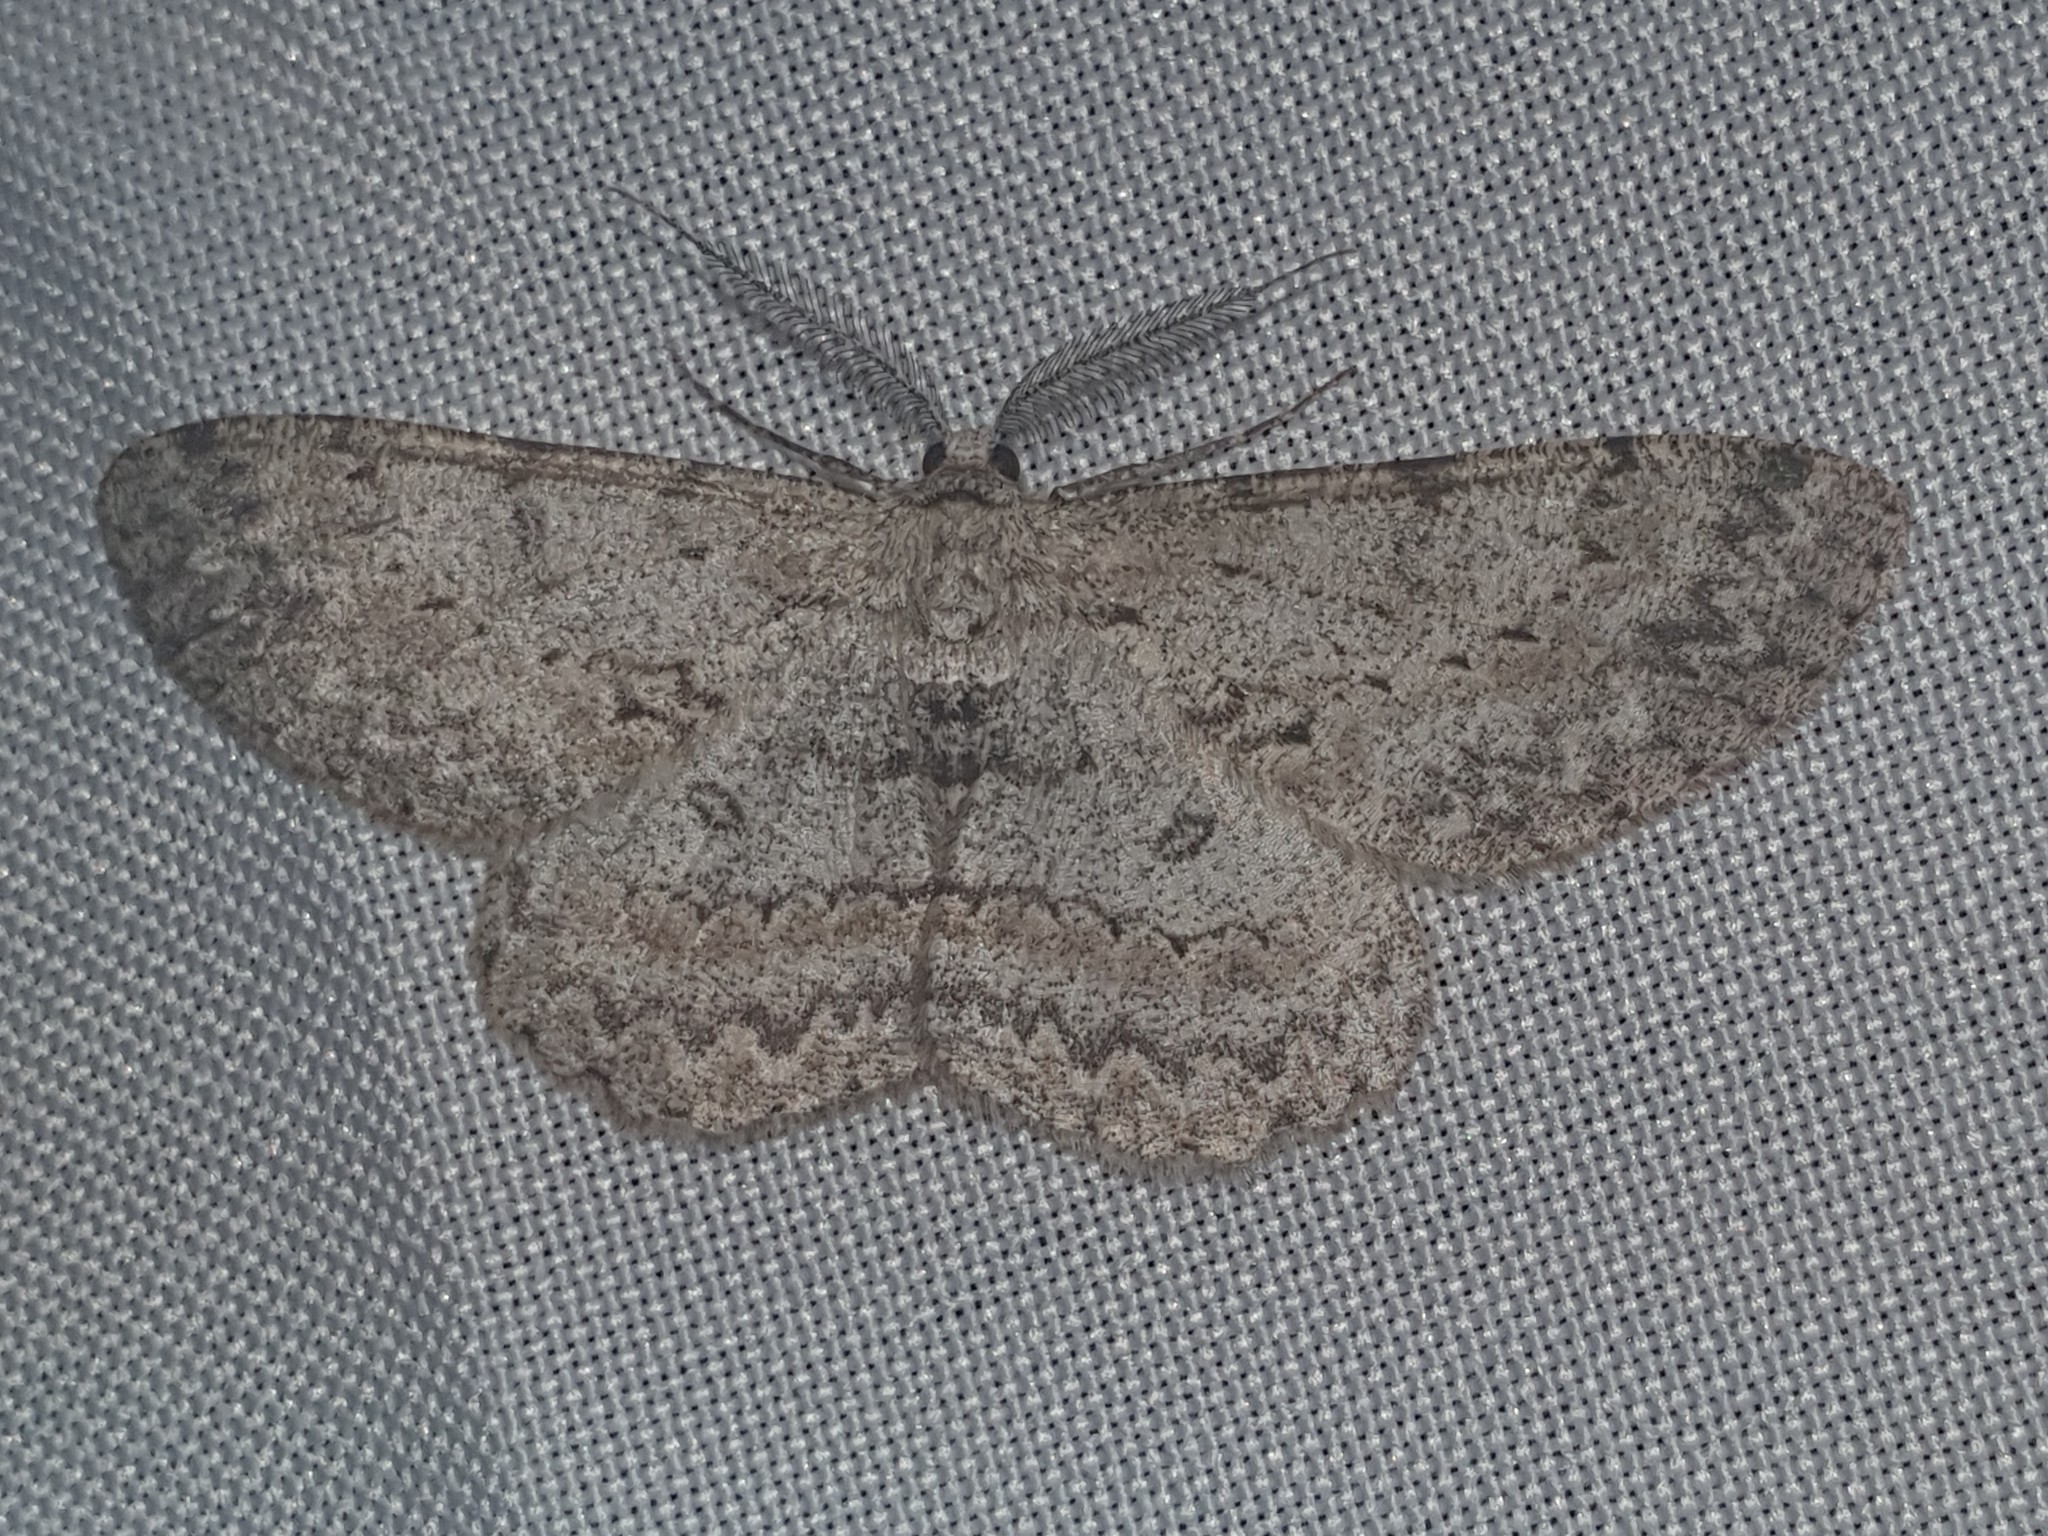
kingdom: Animalia
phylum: Arthropoda
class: Insecta
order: Lepidoptera
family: Geometridae
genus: Hypomecis
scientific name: Hypomecis punctinalis
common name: Pale oak beauty
